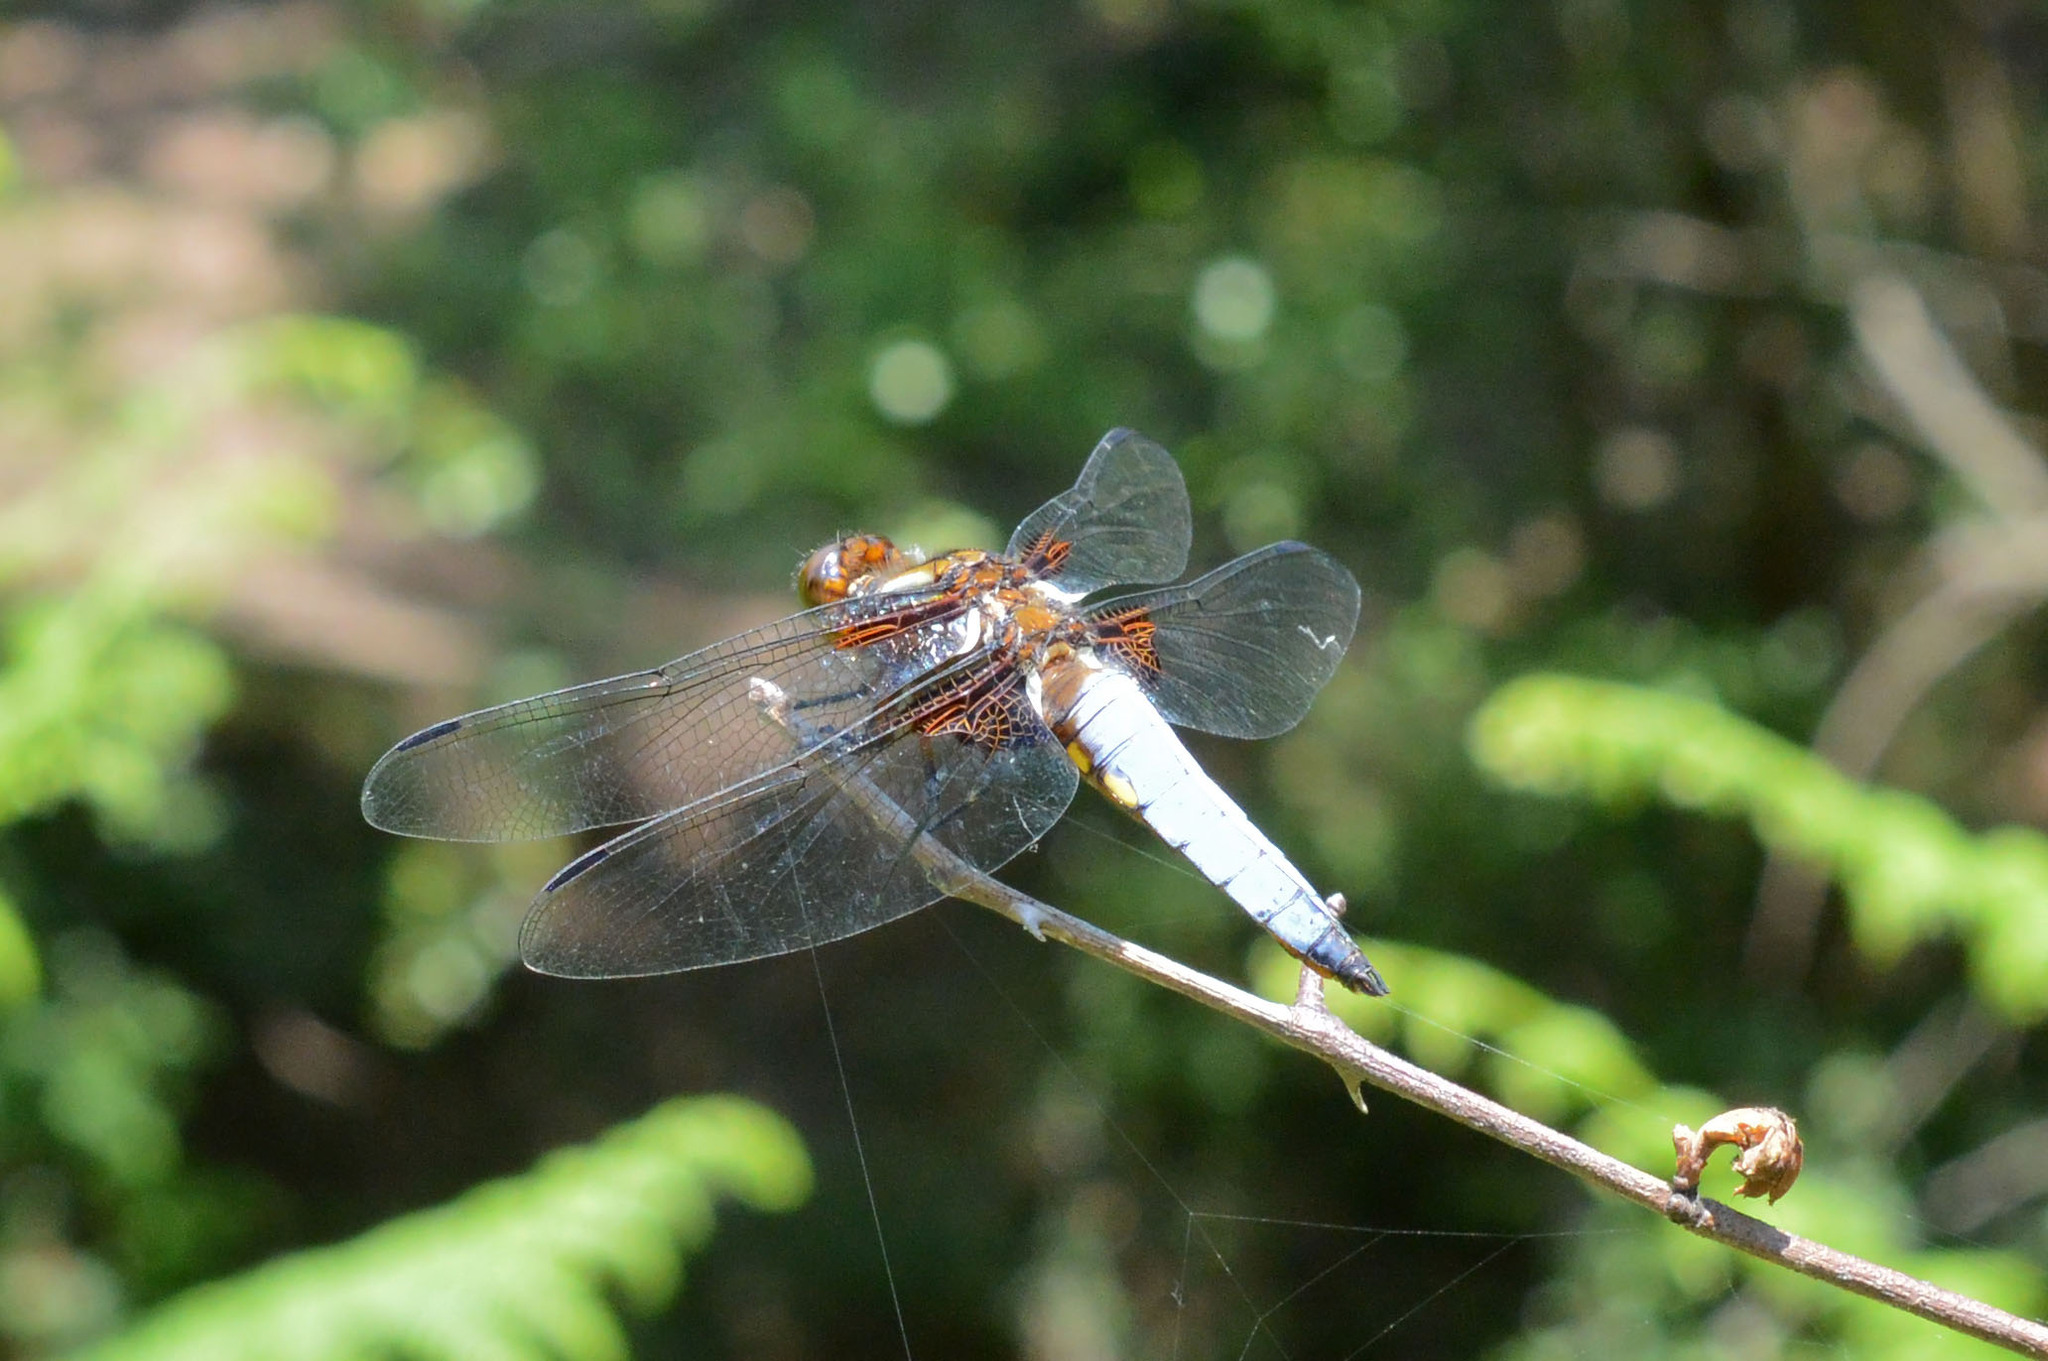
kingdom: Animalia
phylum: Arthropoda
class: Insecta
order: Odonata
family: Libellulidae
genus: Libellula
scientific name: Libellula depressa
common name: Broad-bodied chaser
